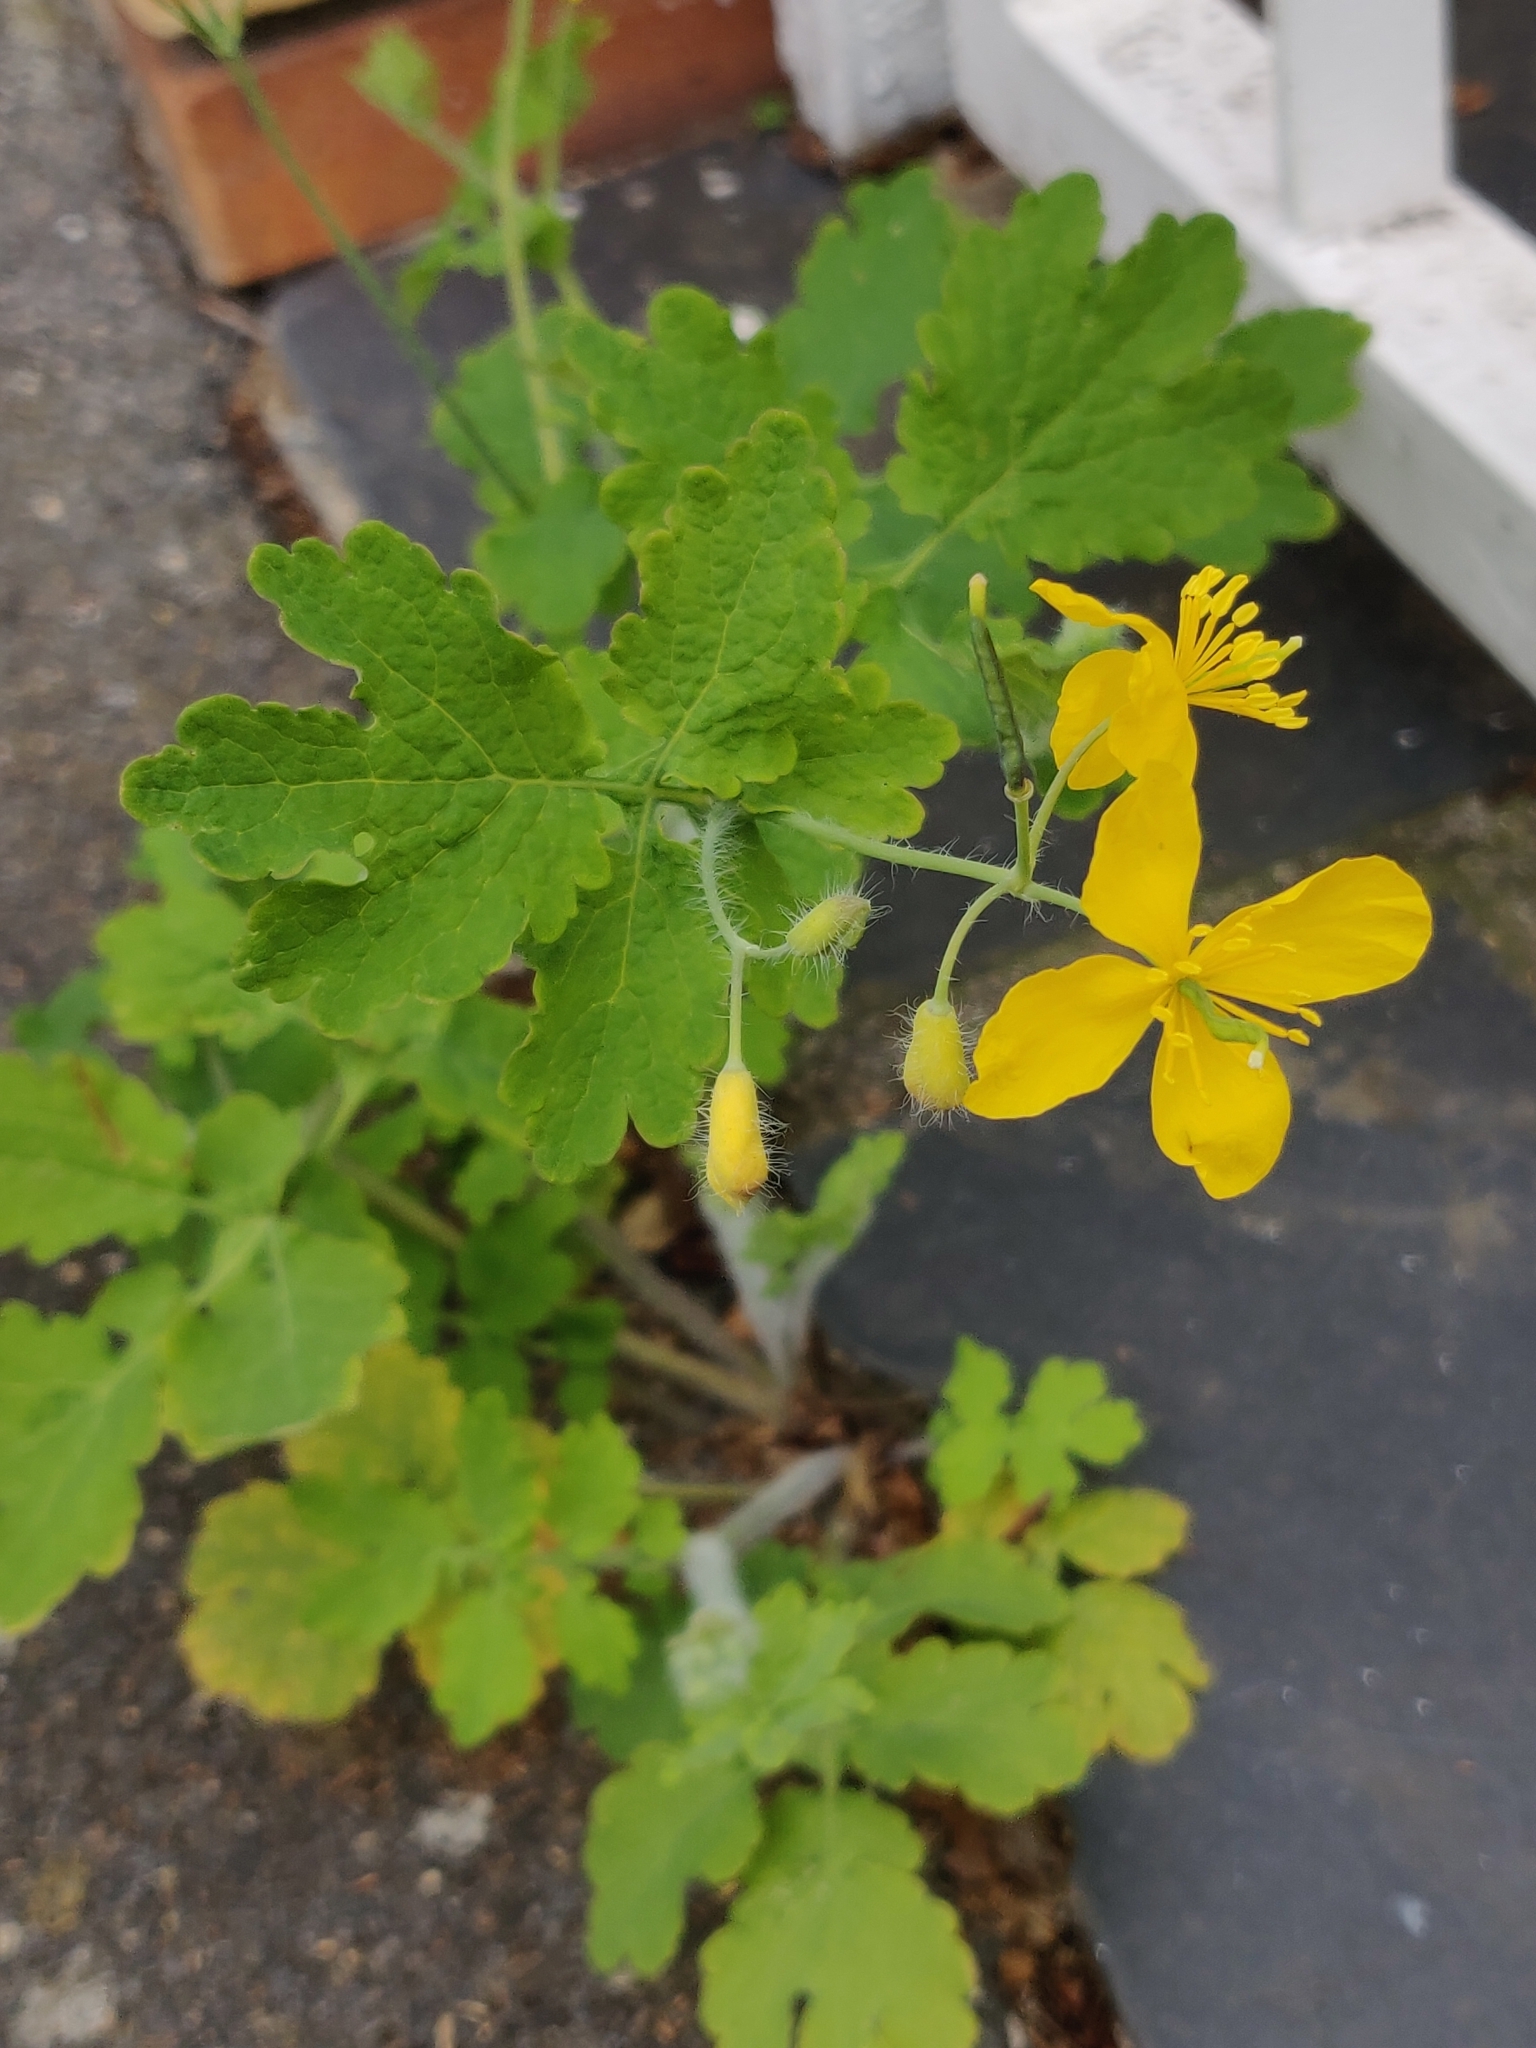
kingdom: Plantae
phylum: Tracheophyta
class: Magnoliopsida
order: Ranunculales
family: Papaveraceae
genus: Chelidonium
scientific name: Chelidonium majus
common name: Greater celandine
